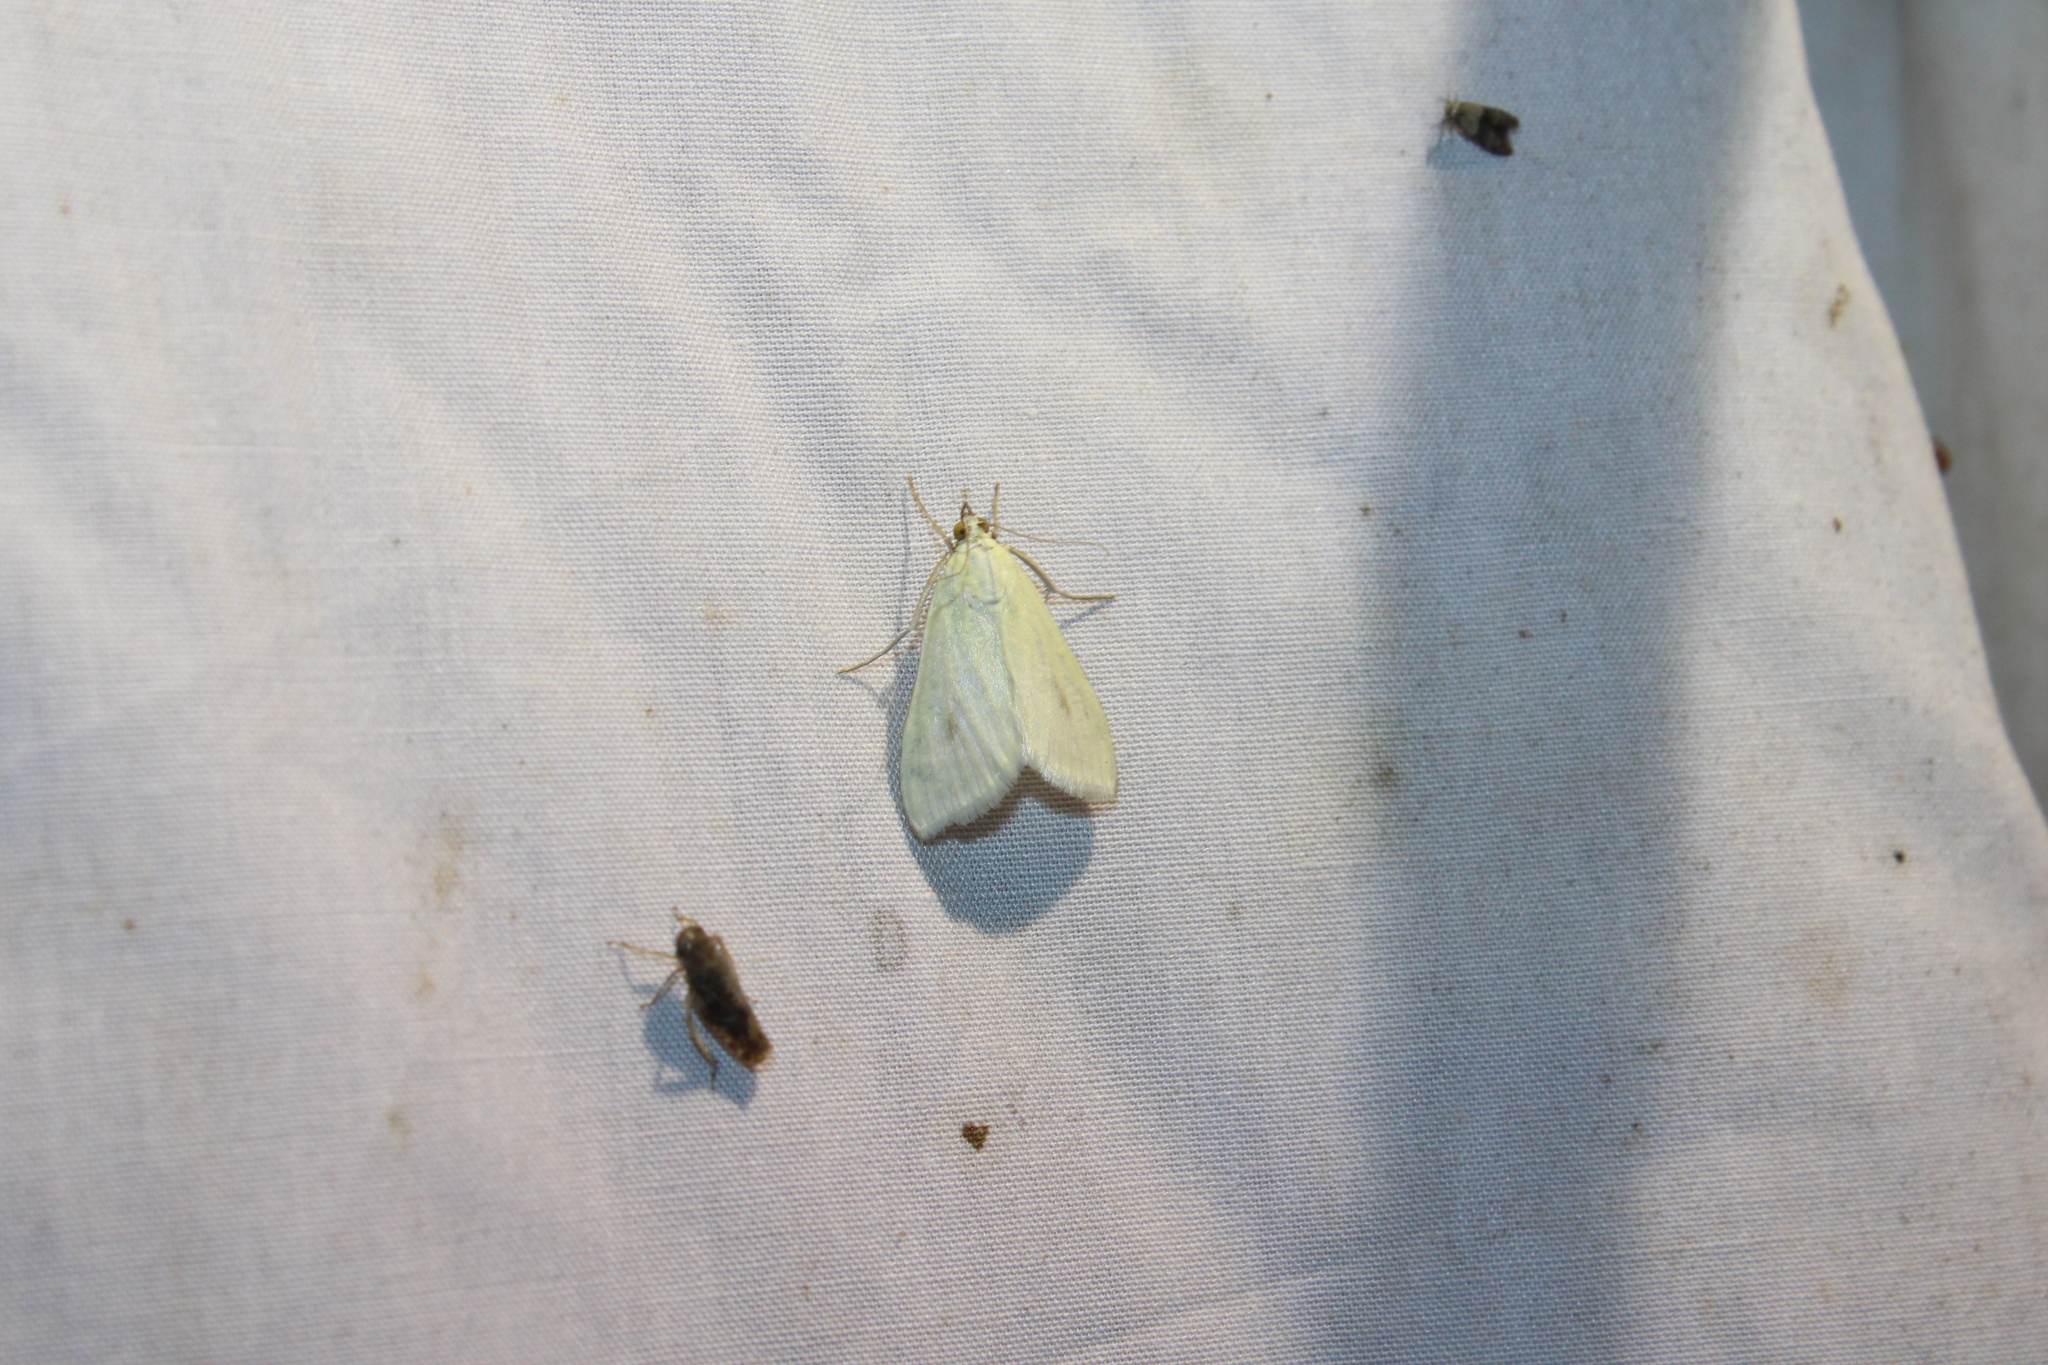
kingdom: Animalia
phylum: Arthropoda
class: Insecta
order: Lepidoptera
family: Crambidae
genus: Sitochroa
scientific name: Sitochroa palealis
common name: Greenish-yellow sitochroa moth
